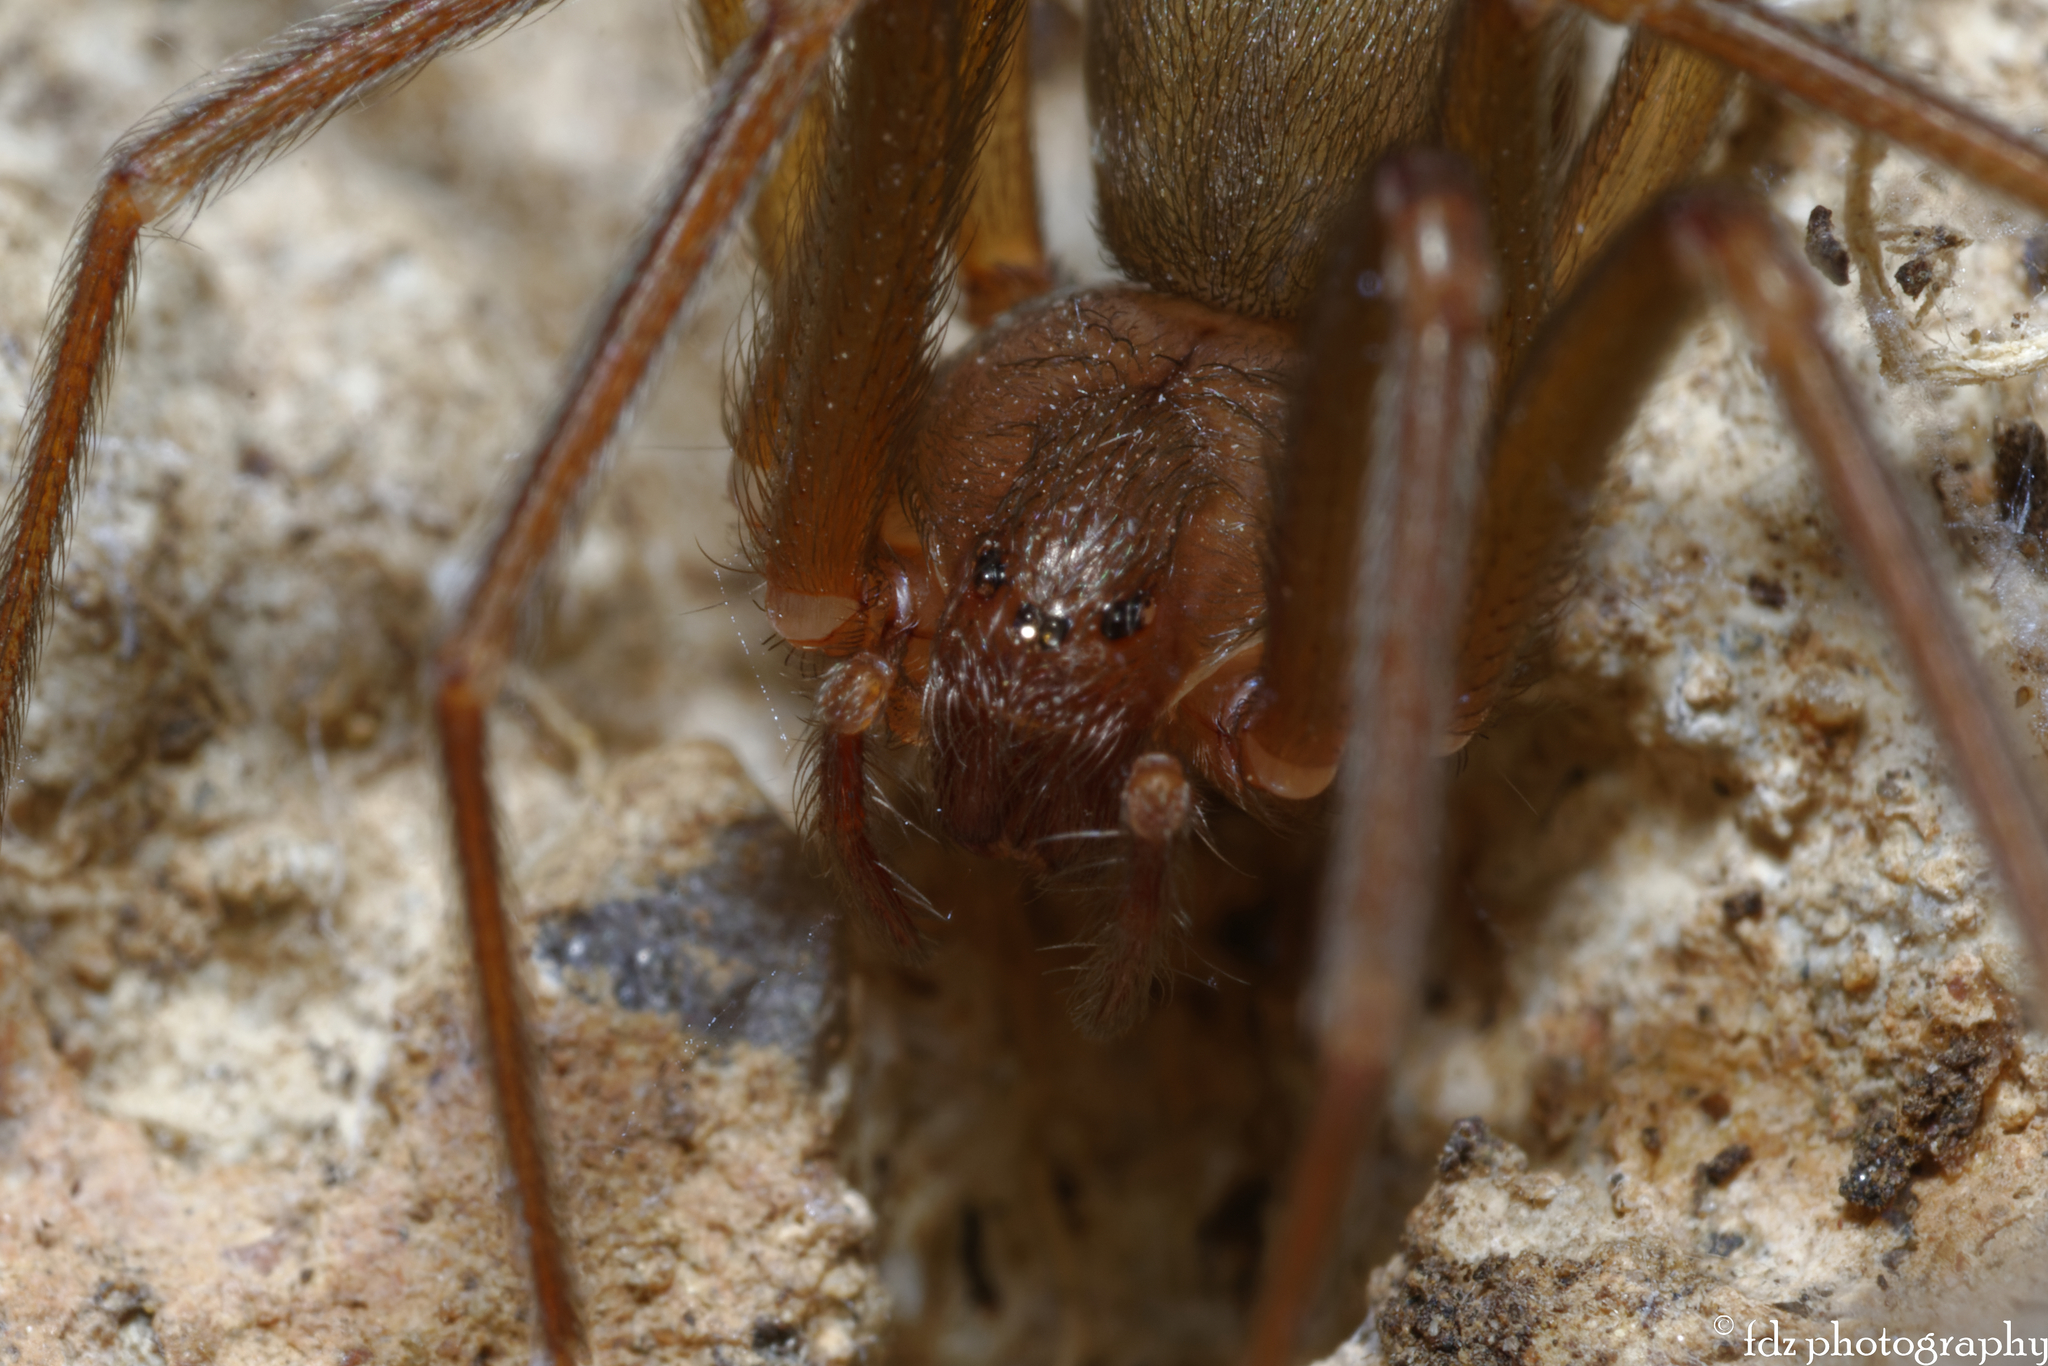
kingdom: Animalia
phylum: Arthropoda
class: Arachnida
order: Araneae
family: Sicariidae
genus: Loxosceles
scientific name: Loxosceles rufescens
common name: Mediterranean recluse spider
